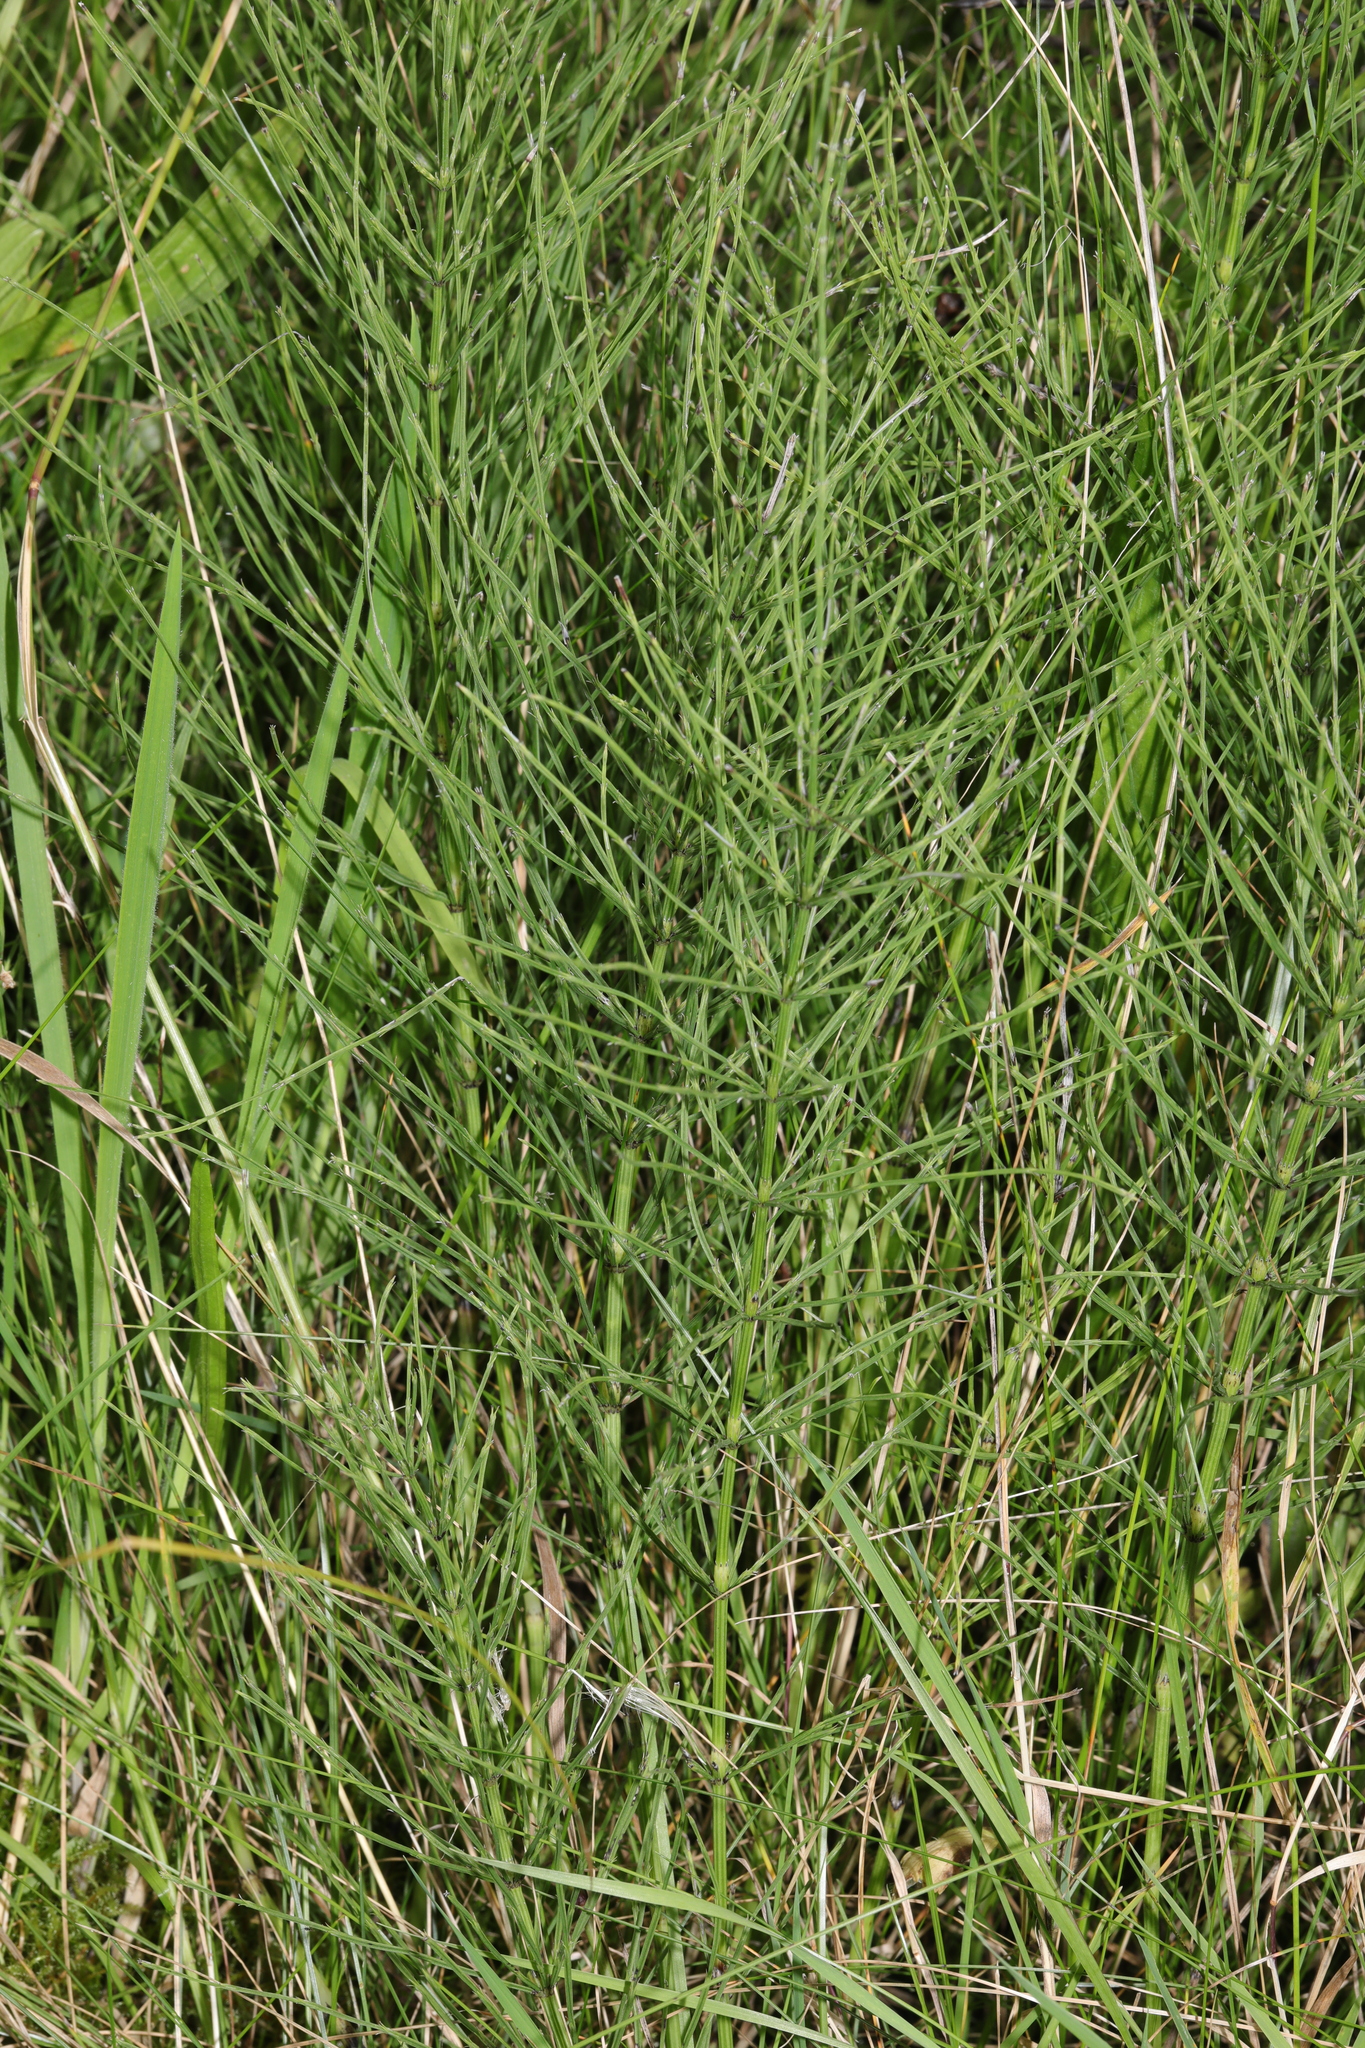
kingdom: Plantae
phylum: Tracheophyta
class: Polypodiopsida
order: Equisetales
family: Equisetaceae
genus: Equisetum
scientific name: Equisetum arvense
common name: Field horsetail
